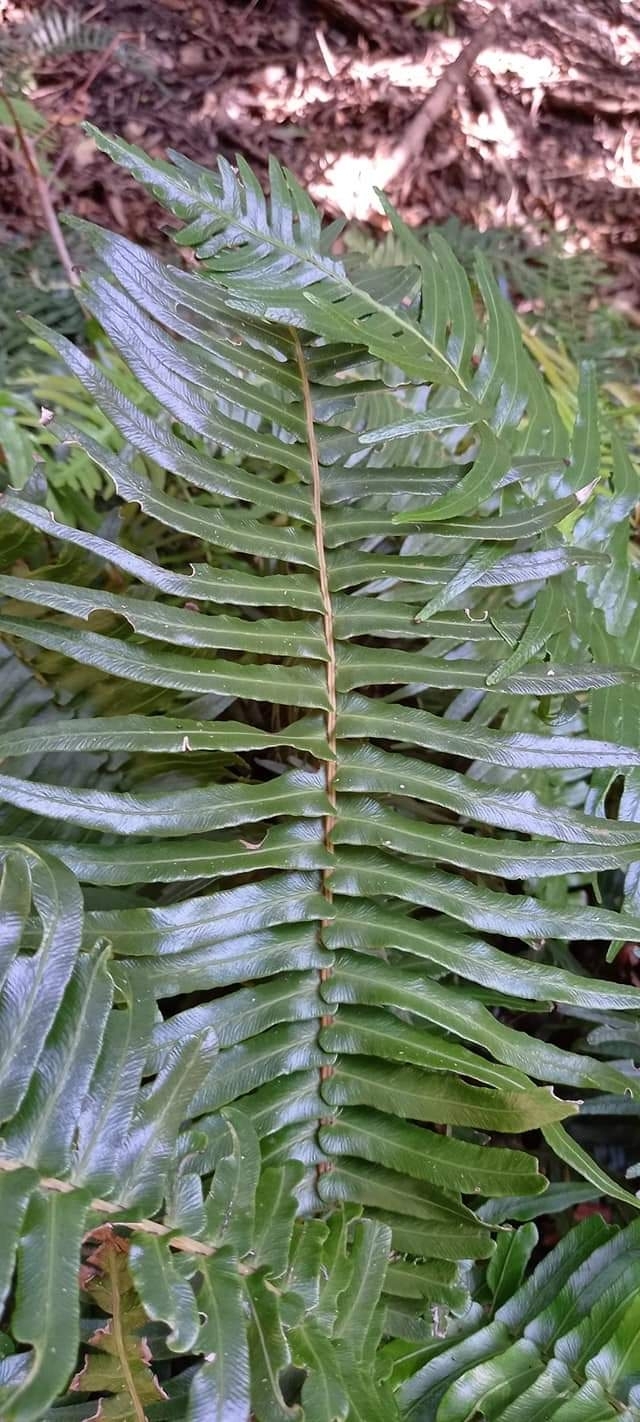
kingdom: Plantae
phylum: Tracheophyta
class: Polypodiopsida
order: Polypodiales
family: Blechnaceae
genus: Blechnum
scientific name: Blechnum punctulatum
